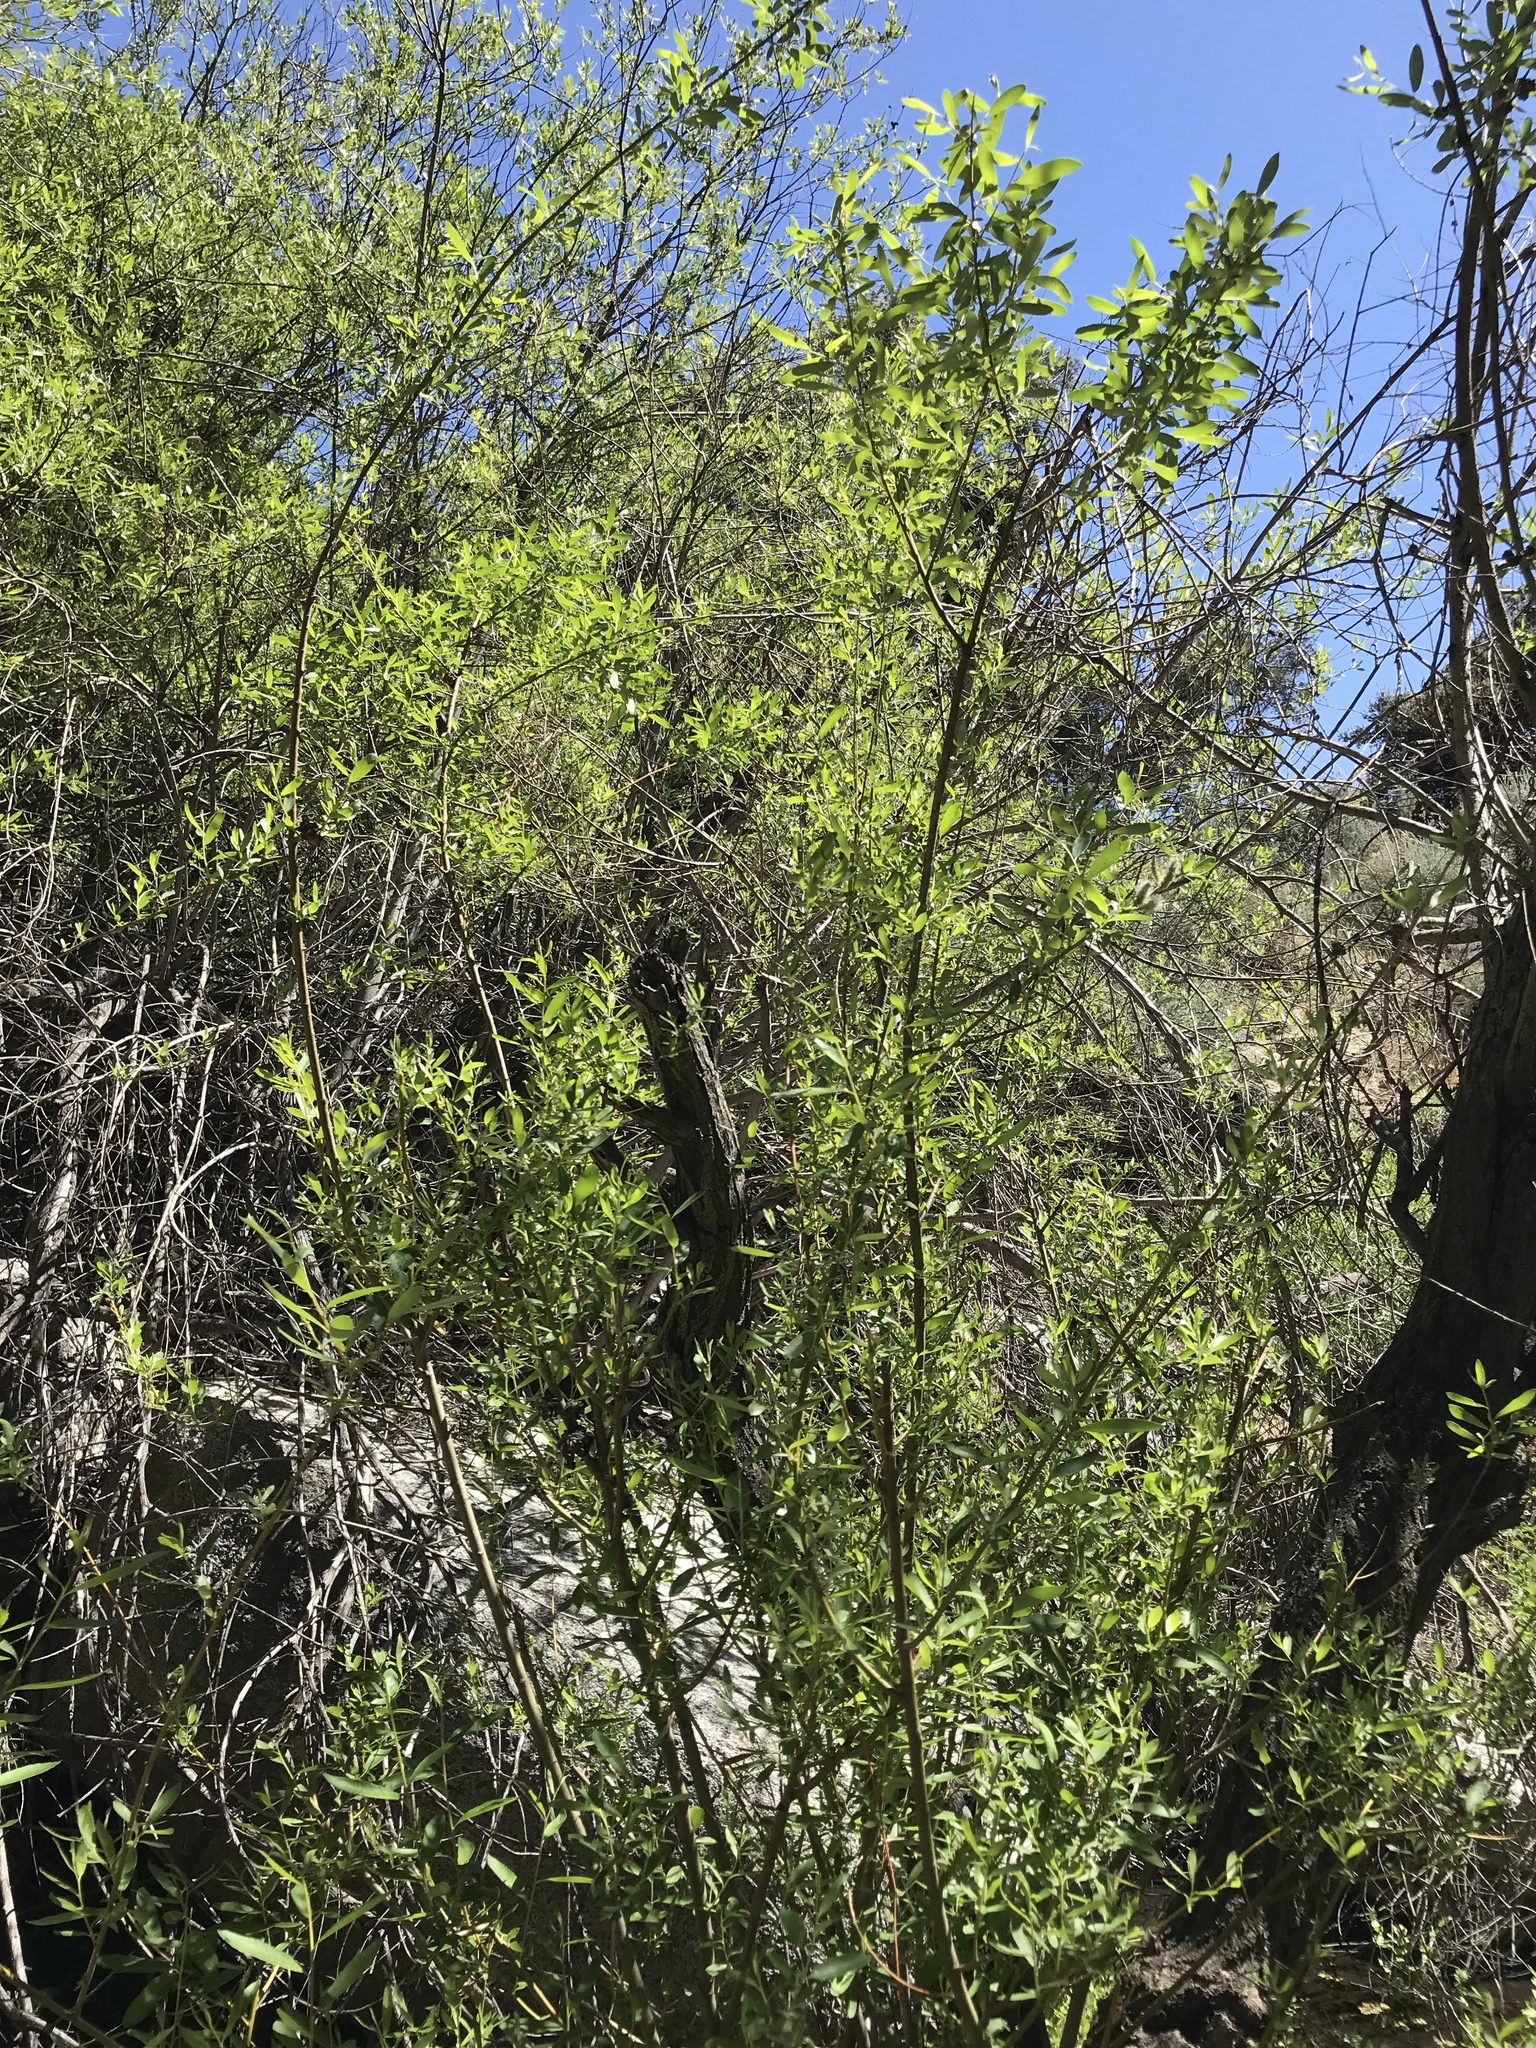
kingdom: Plantae
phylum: Tracheophyta
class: Magnoliopsida
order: Malpighiales
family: Salicaceae
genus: Salix
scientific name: Salix lasiolepis
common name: Arroyo willow
